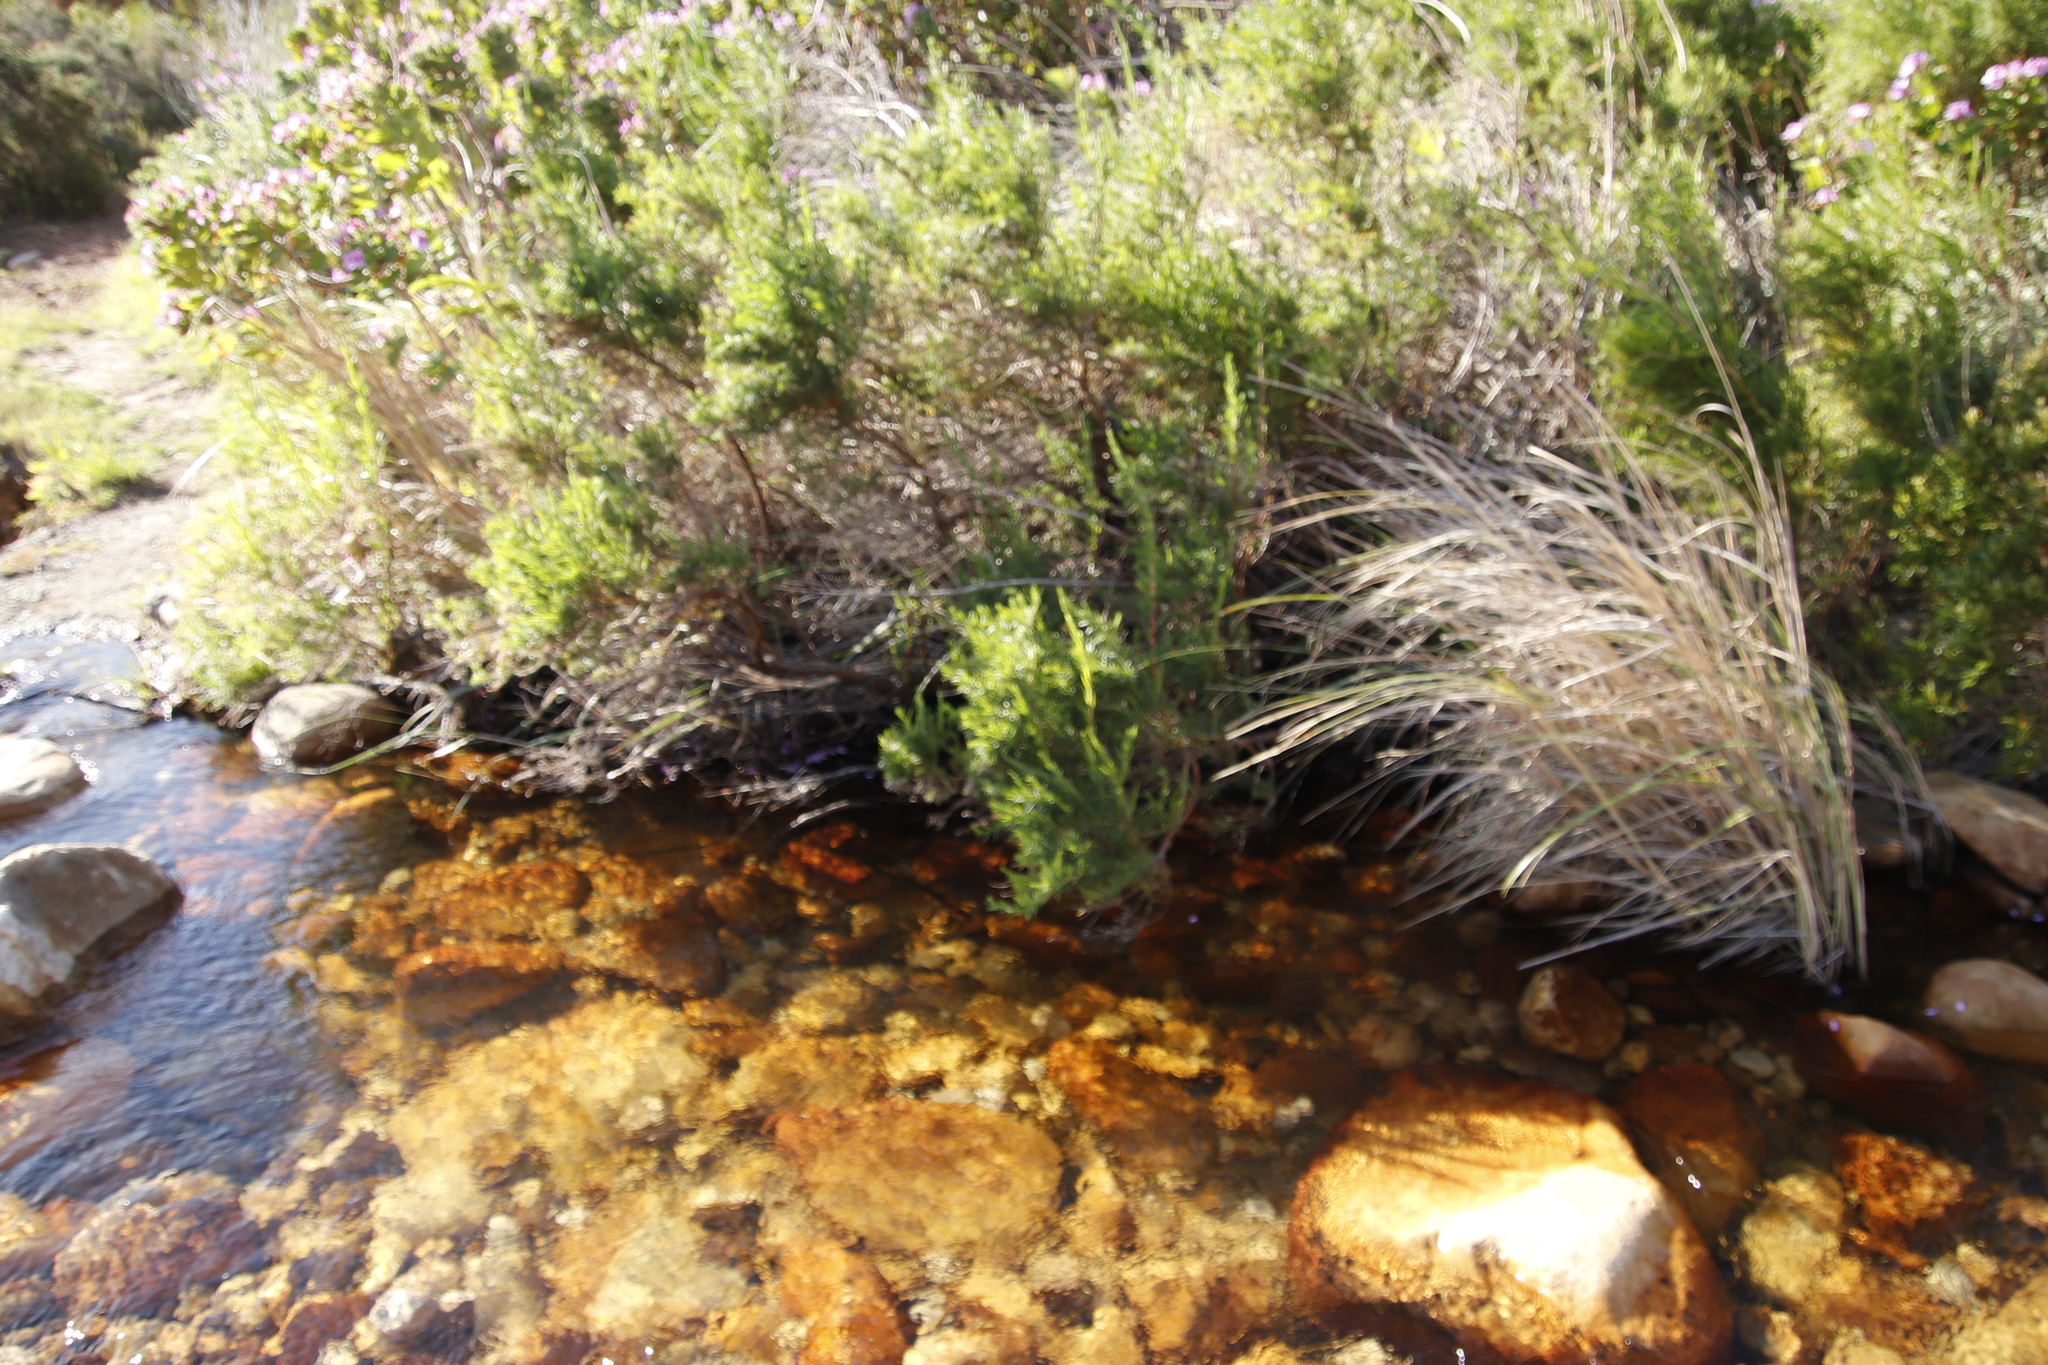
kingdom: Plantae
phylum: Tracheophyta
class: Magnoliopsida
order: Rosales
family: Rosaceae
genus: Cliffortia
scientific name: Cliffortia strobilifera
